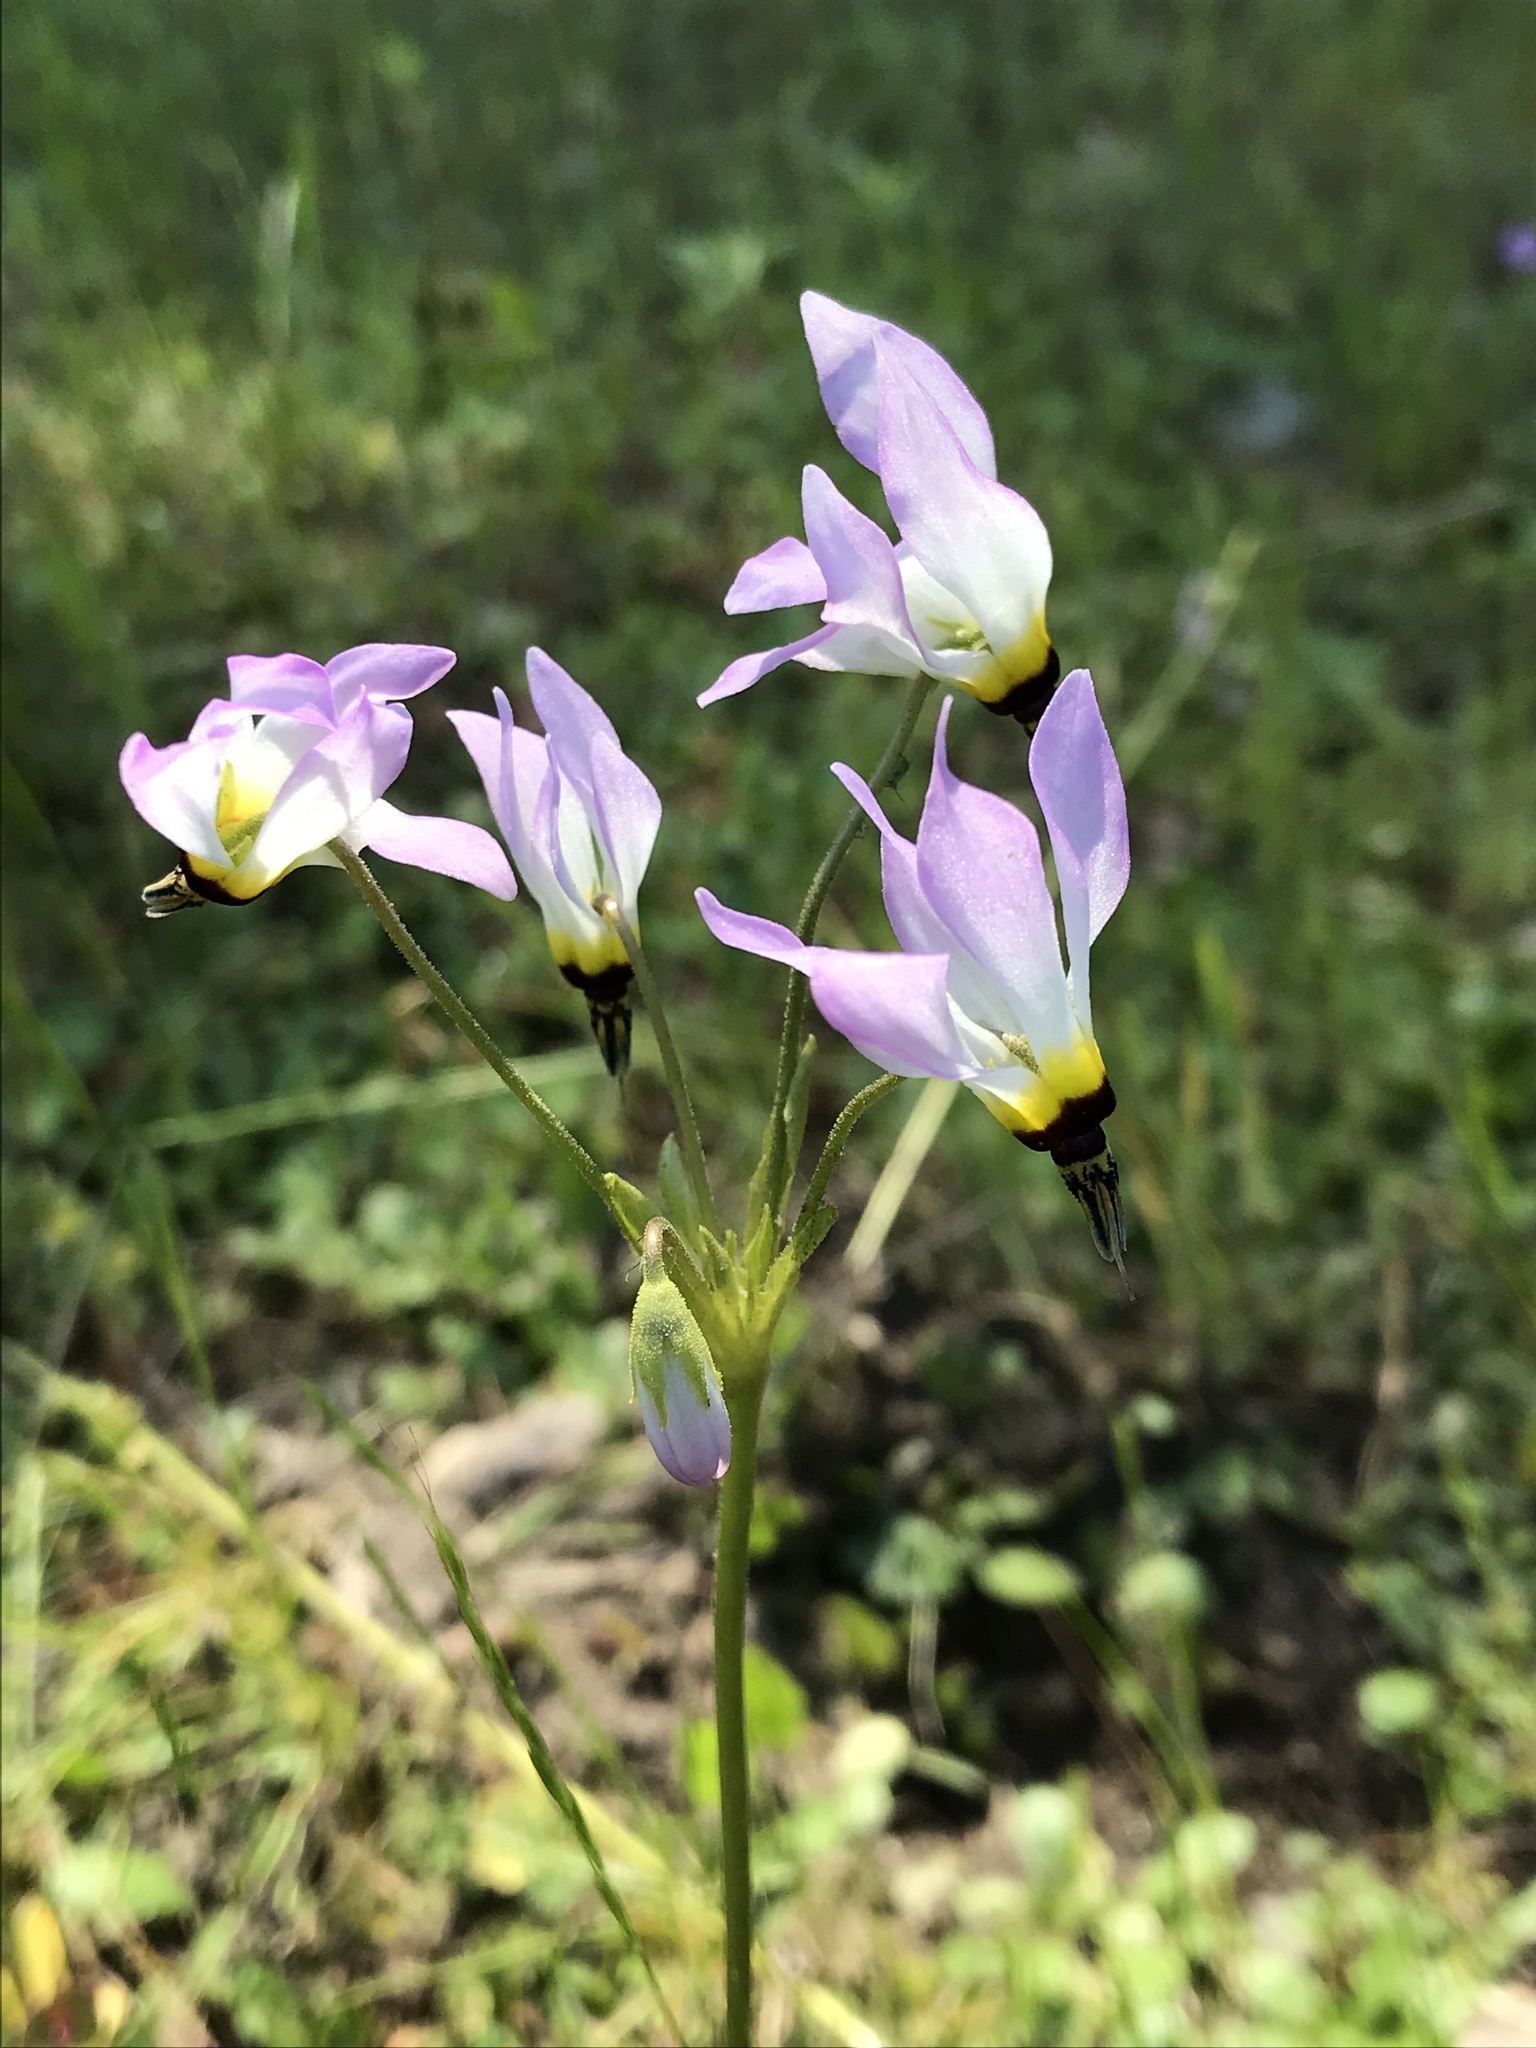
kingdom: Plantae
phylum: Tracheophyta
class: Magnoliopsida
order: Ericales
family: Primulaceae
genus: Dodecatheon
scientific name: Dodecatheon clevelandii
